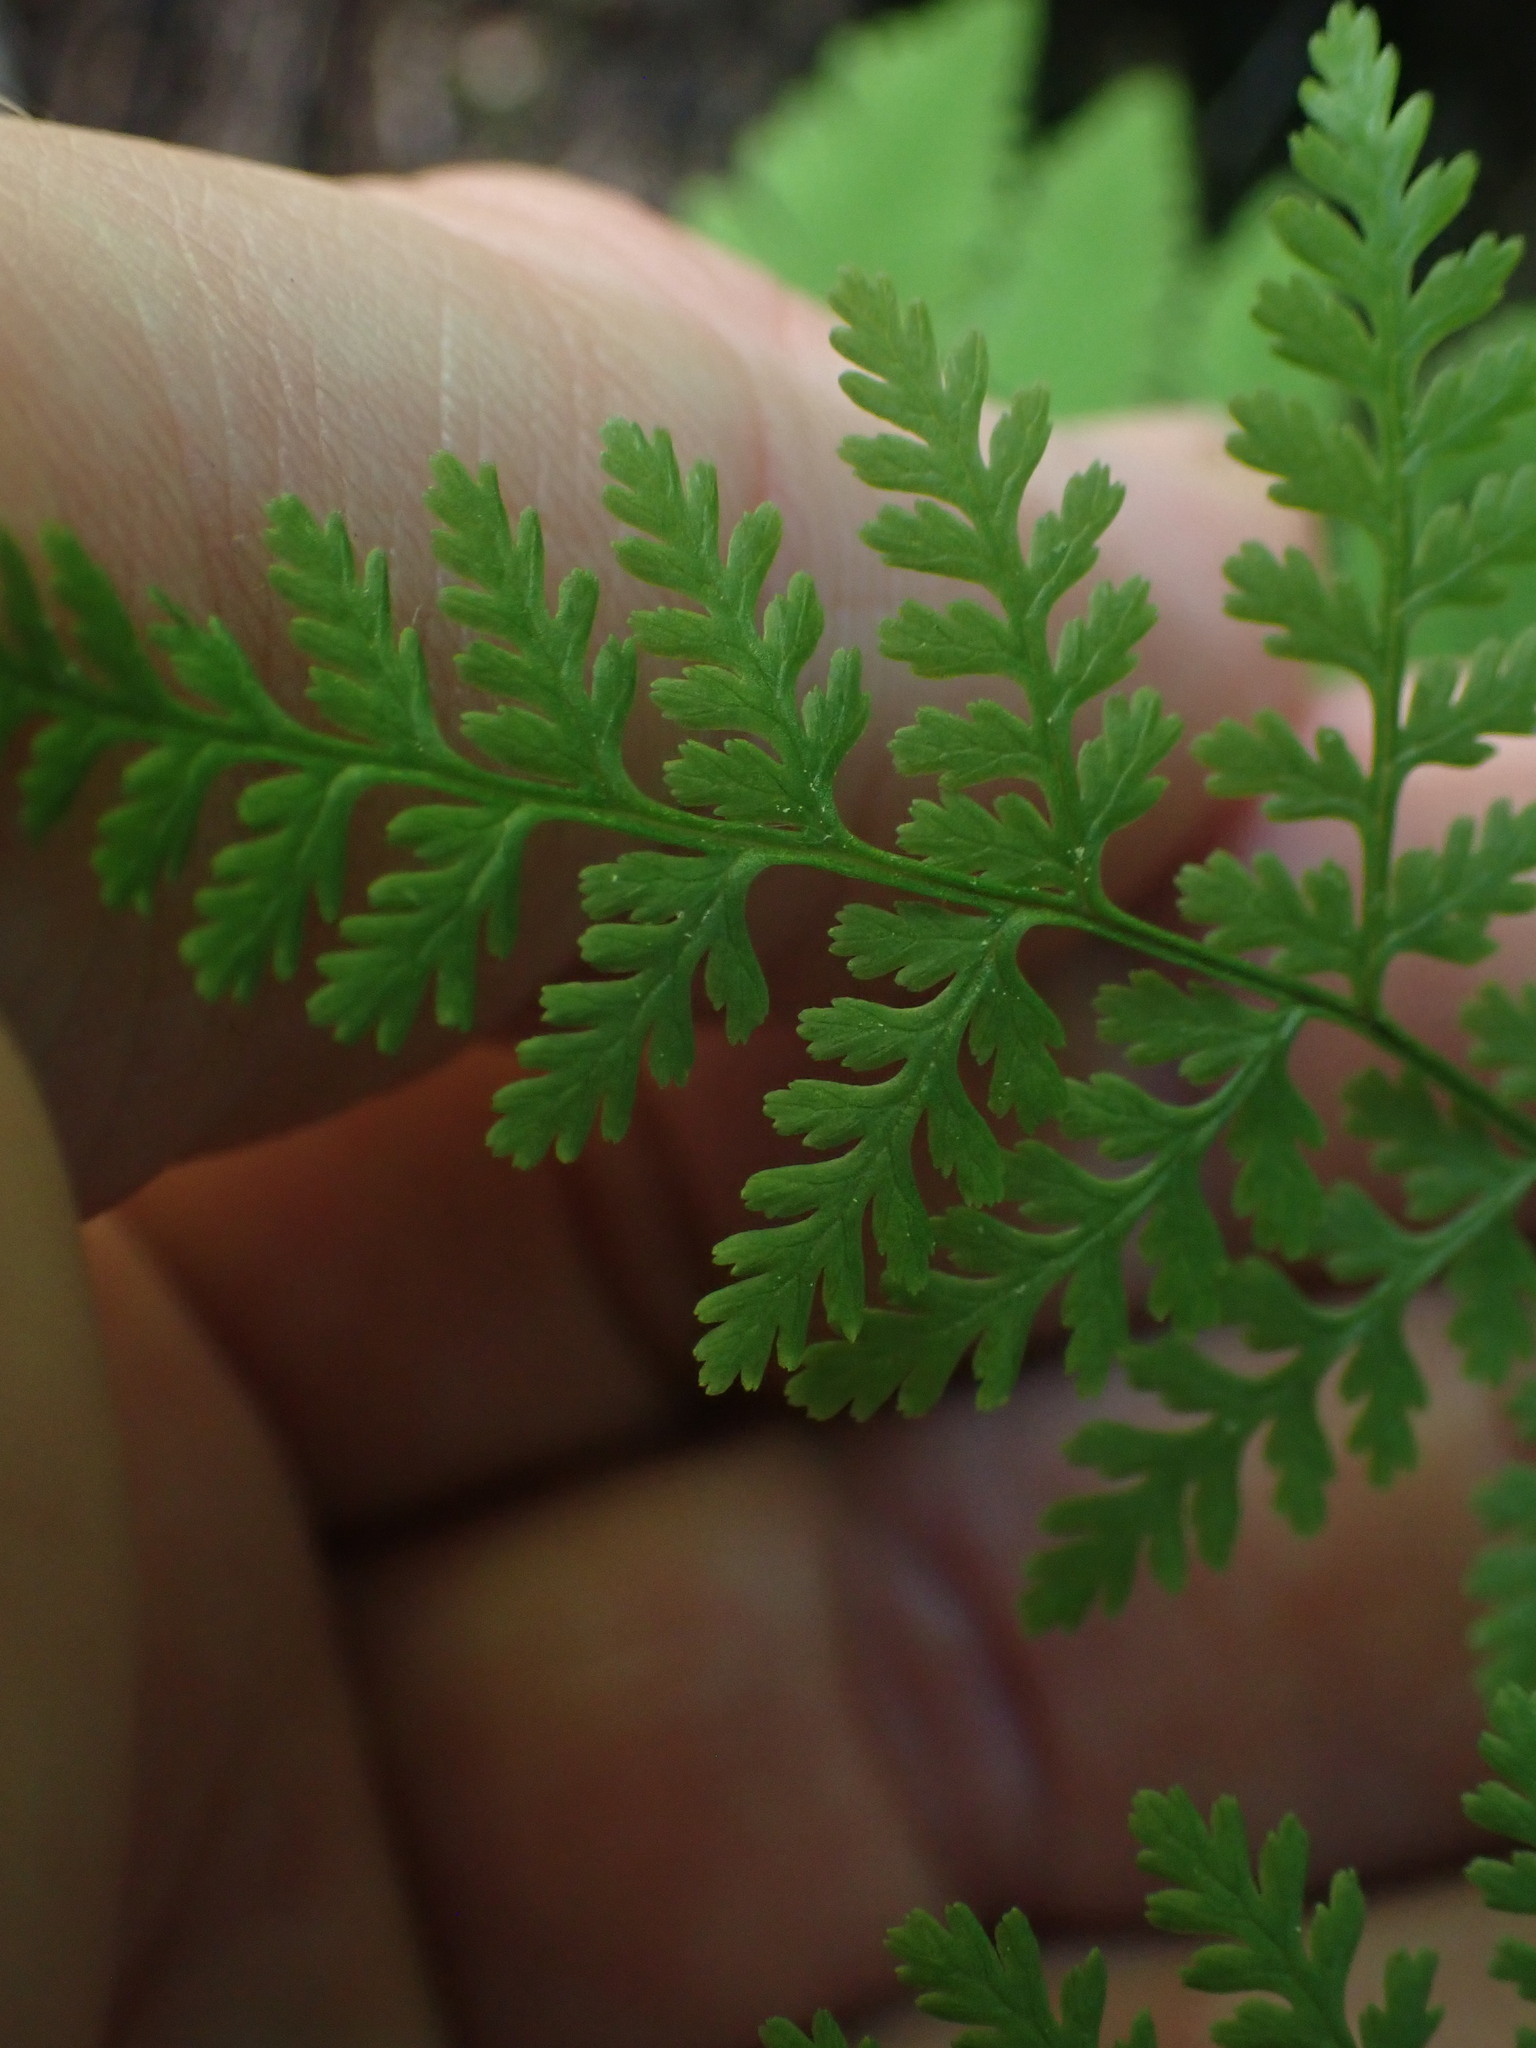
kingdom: Plantae
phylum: Tracheophyta
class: Polypodiopsida
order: Polypodiales
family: Cystopteridaceae
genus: Cystopteris
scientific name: Cystopteris montana
